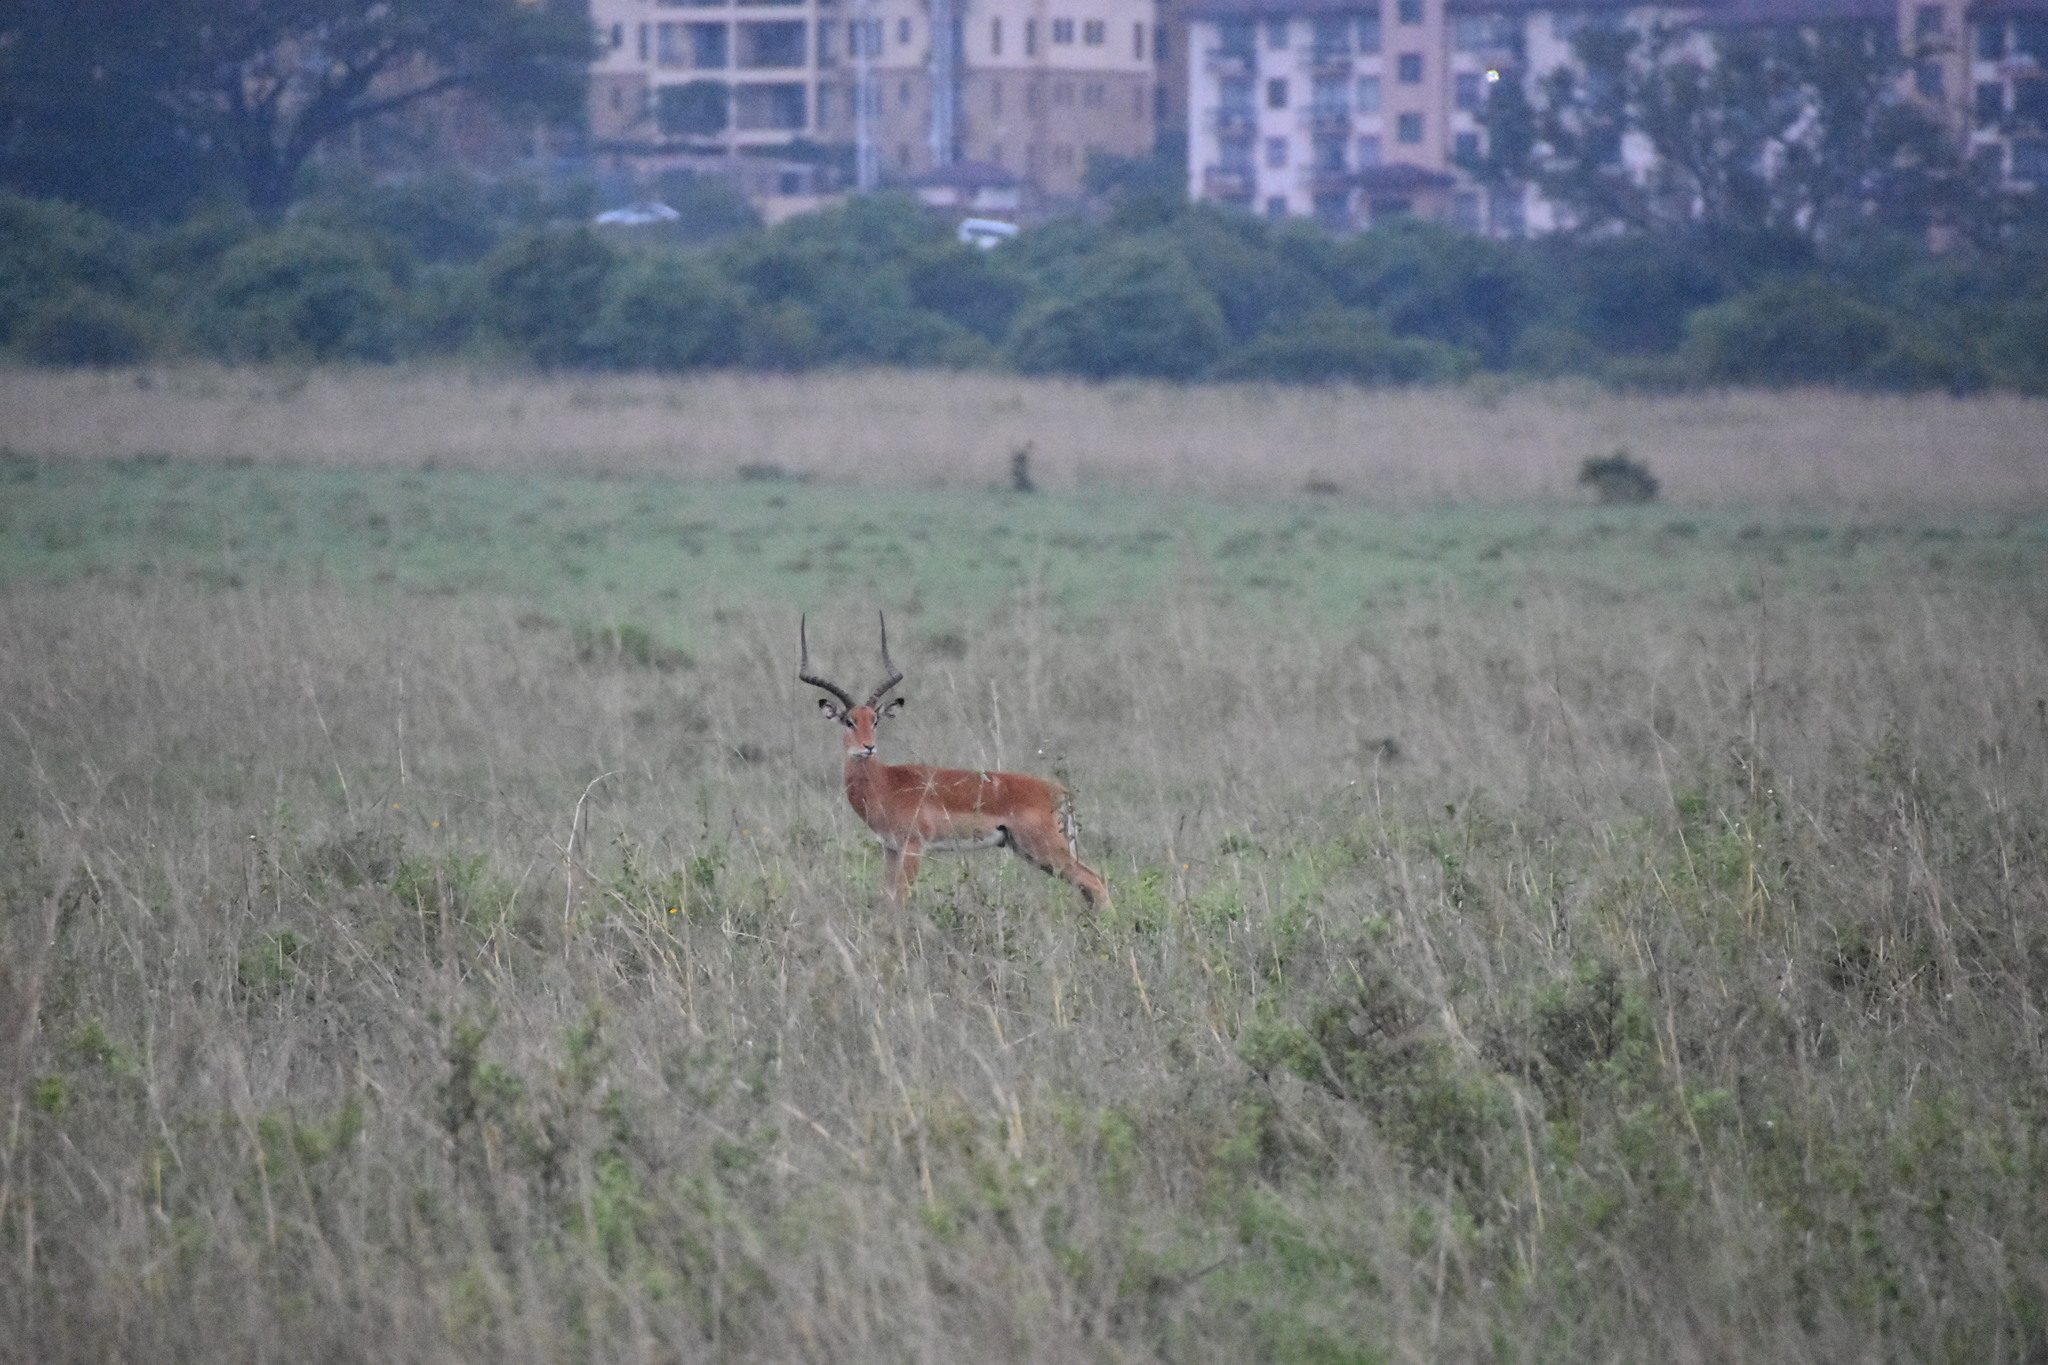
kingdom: Animalia
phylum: Chordata
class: Mammalia
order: Artiodactyla
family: Bovidae
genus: Aepyceros
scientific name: Aepyceros melampus
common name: Impala
